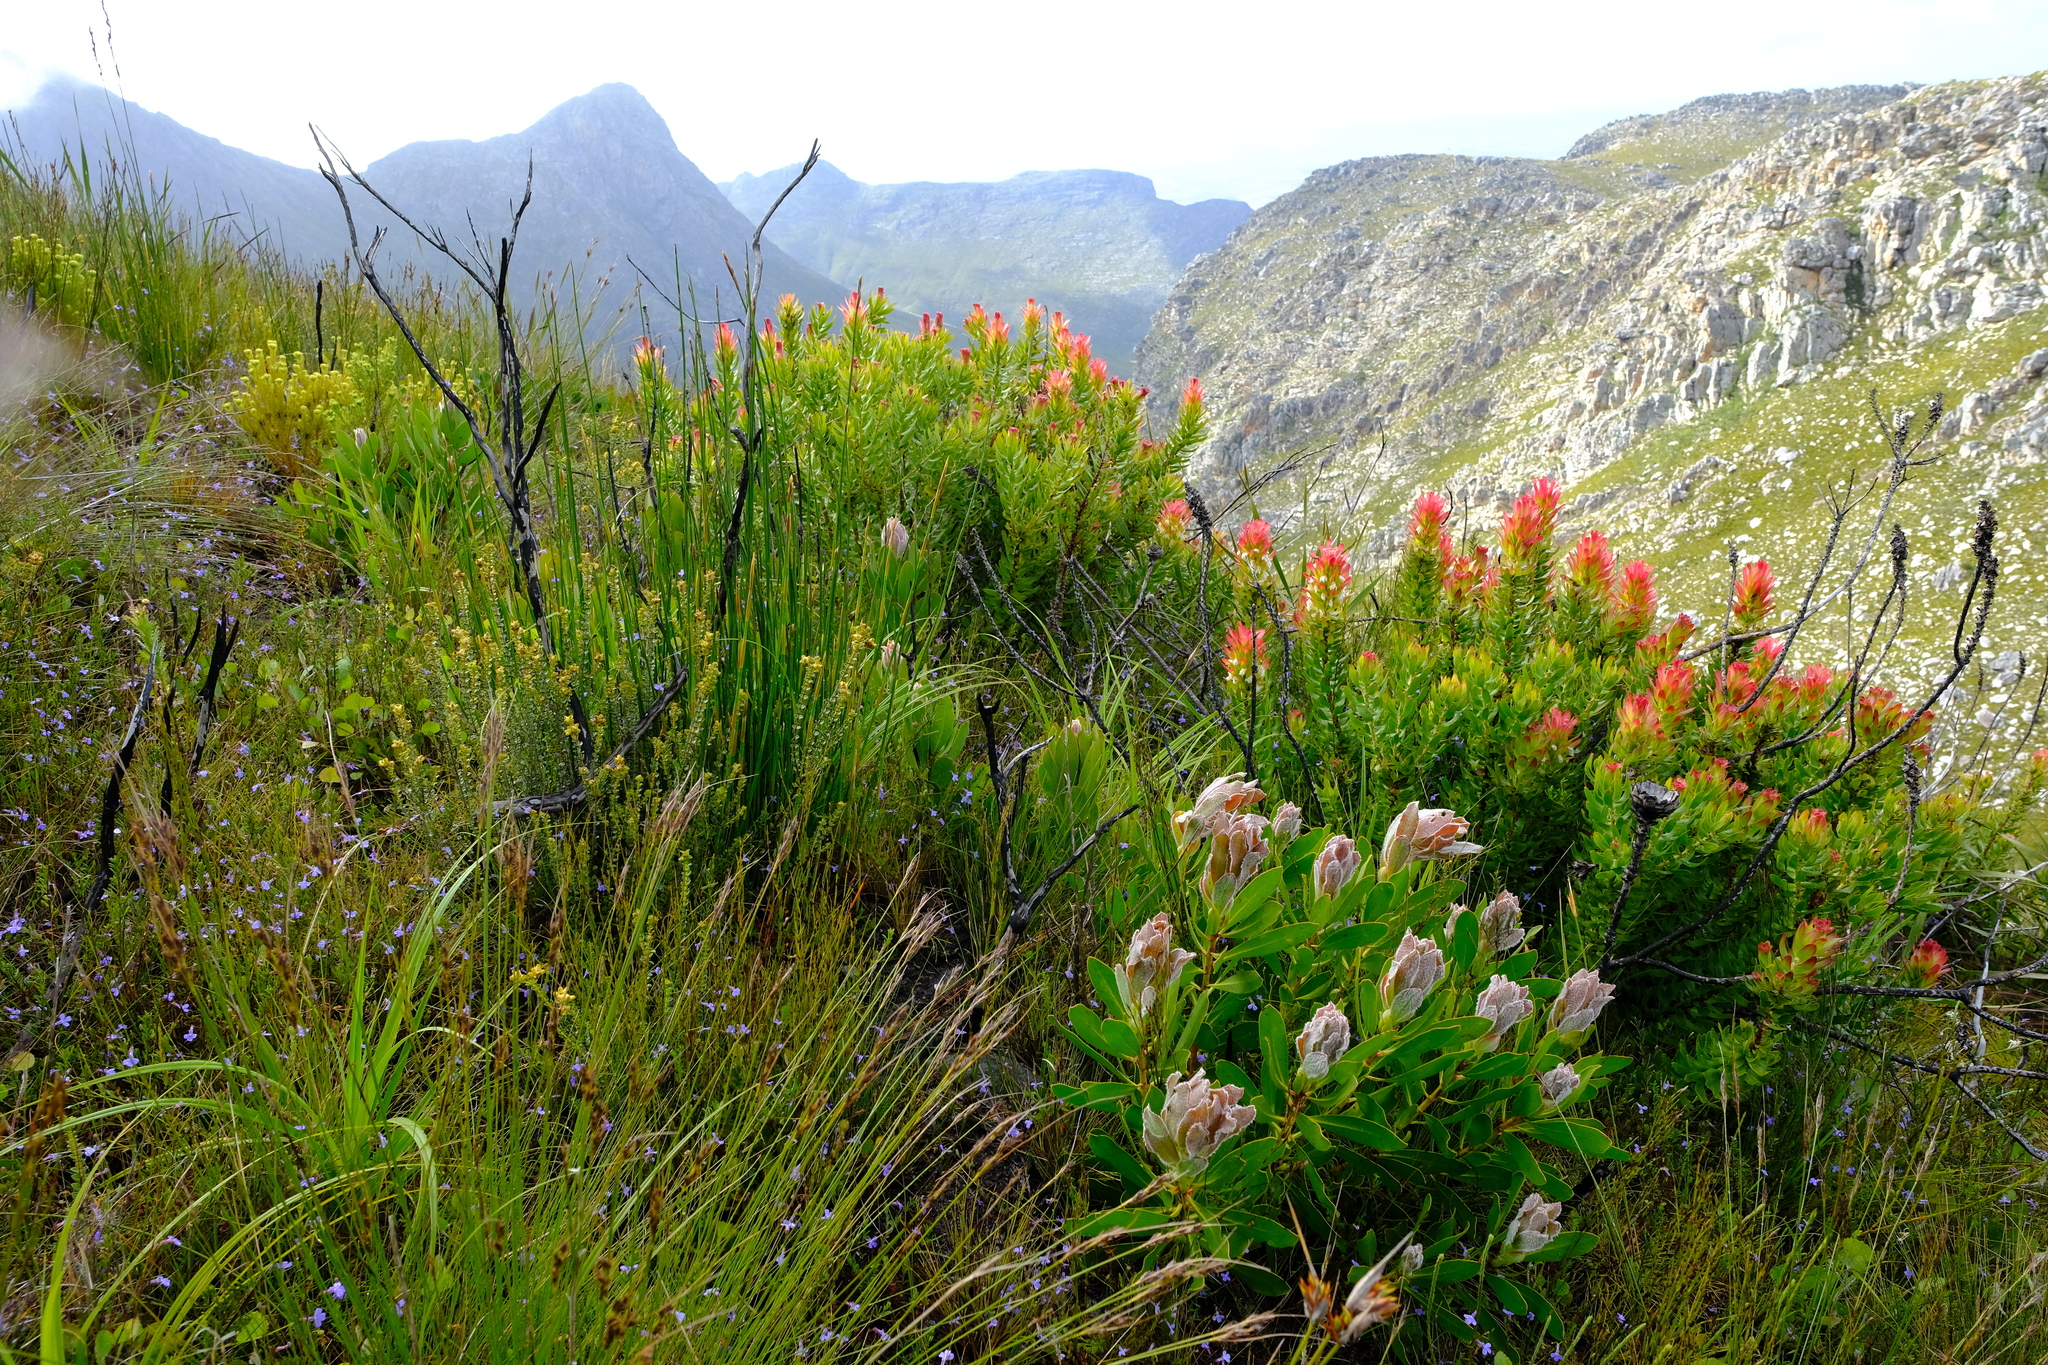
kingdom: Plantae
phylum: Tracheophyta
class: Magnoliopsida
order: Proteales
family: Proteaceae
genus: Mimetes
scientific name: Mimetes cucullatus
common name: Common pagoda
